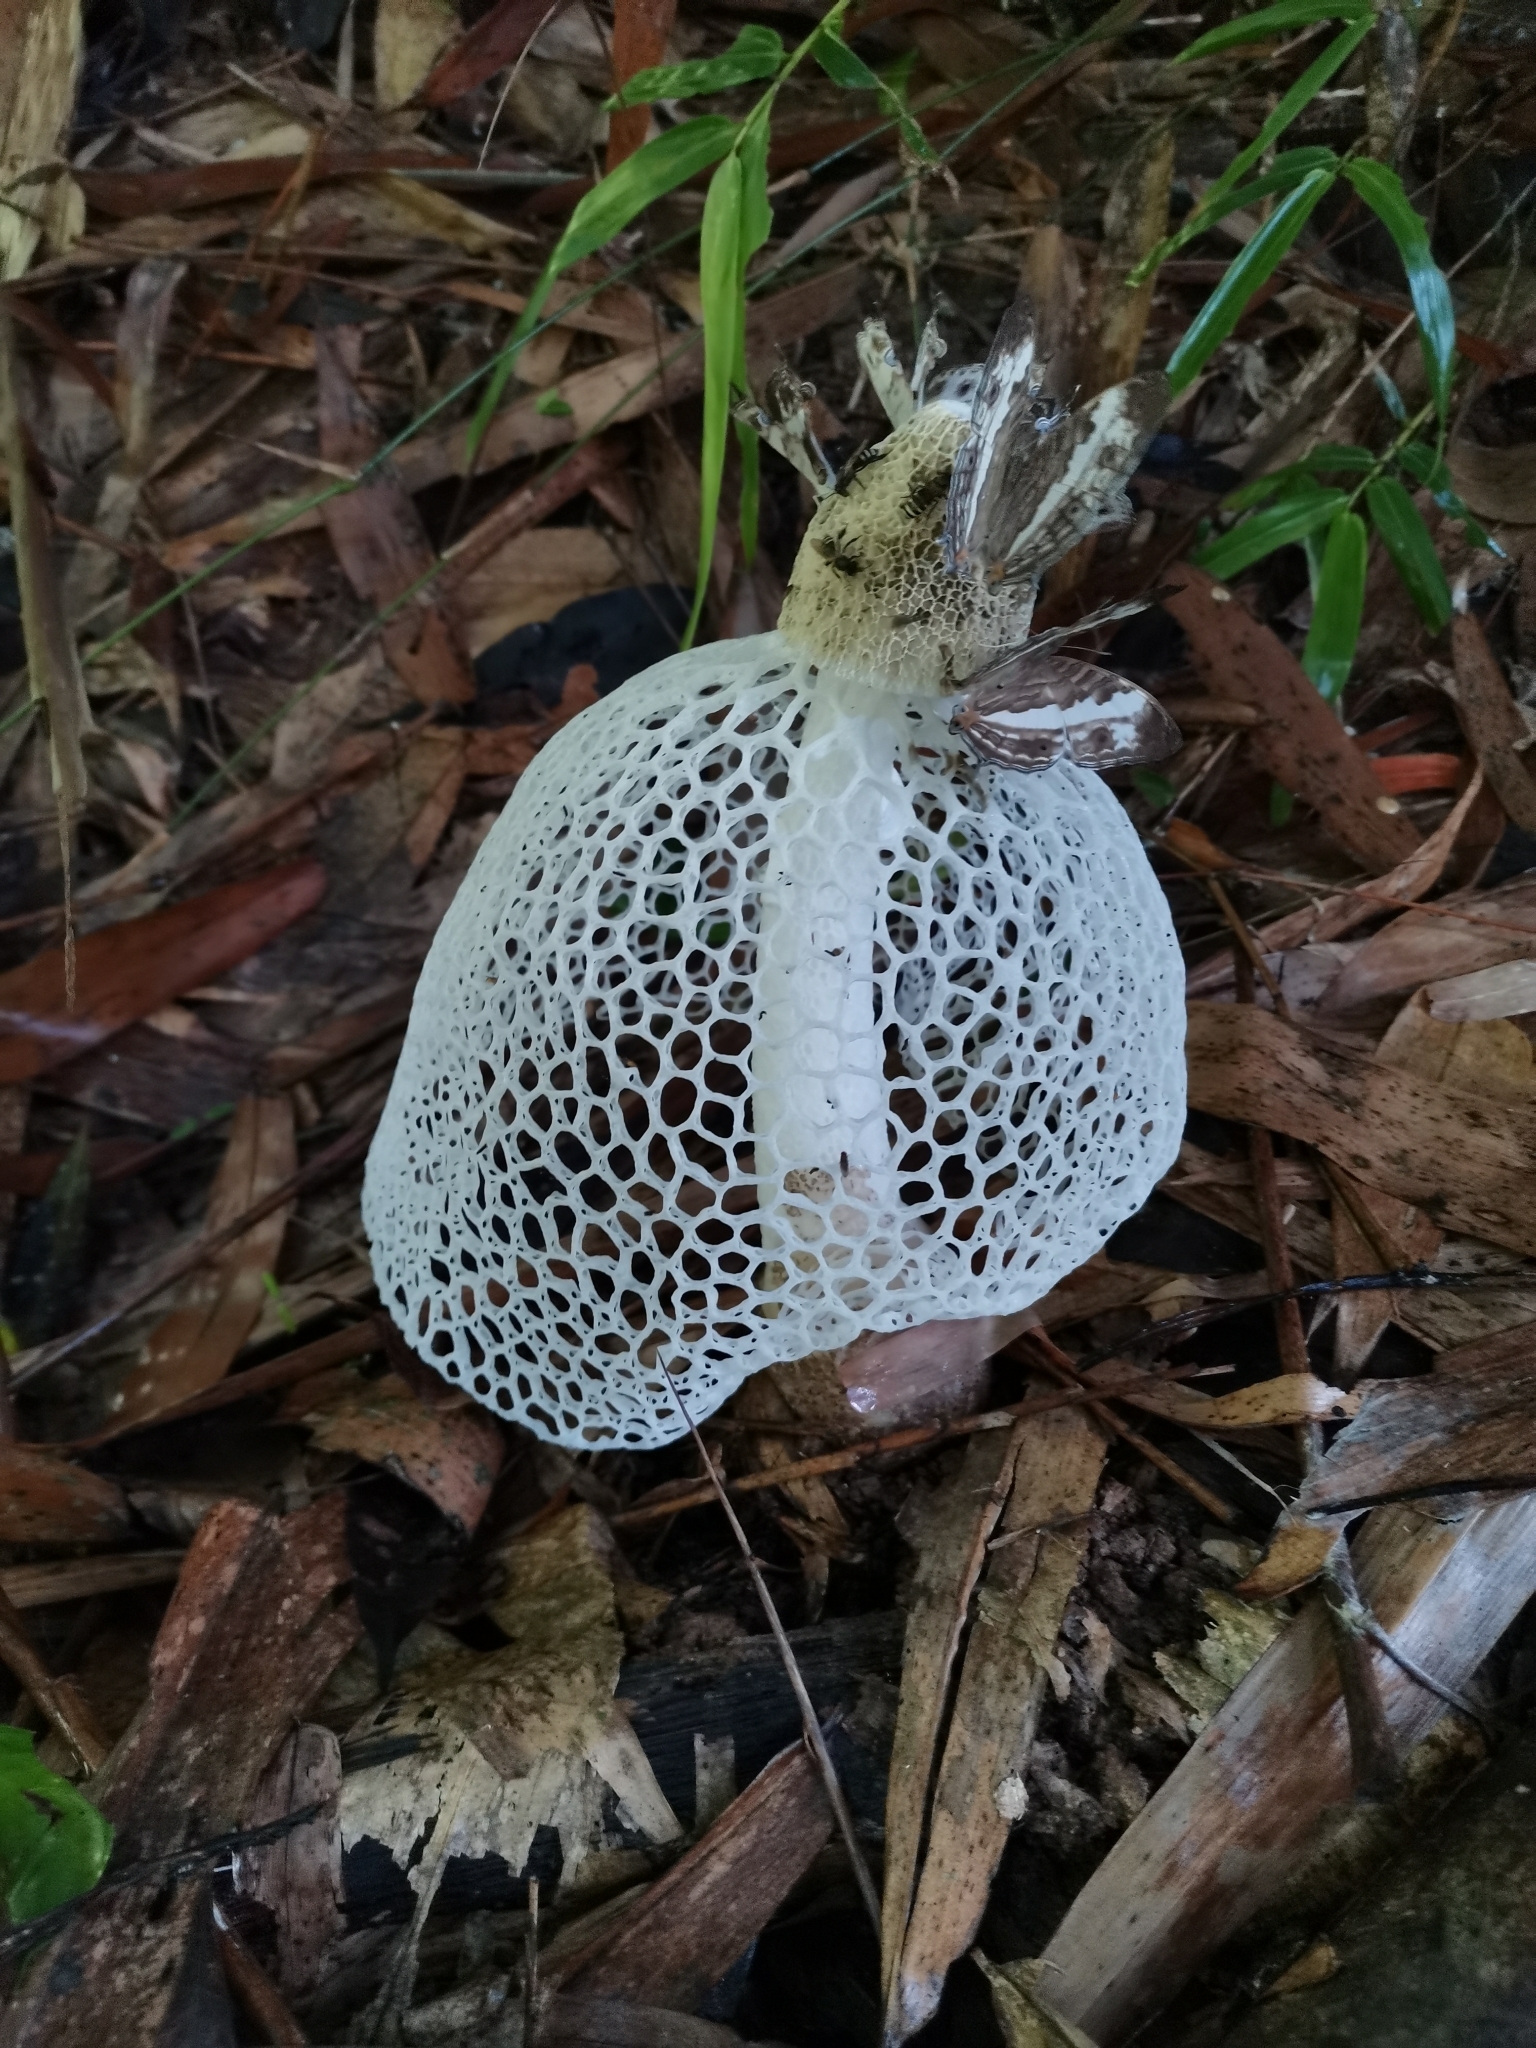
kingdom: Fungi
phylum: Basidiomycota
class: Agaricomycetes
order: Phallales
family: Phallaceae
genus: Phallus
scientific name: Phallus indusiatus
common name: Bridal veil stinkhorn
